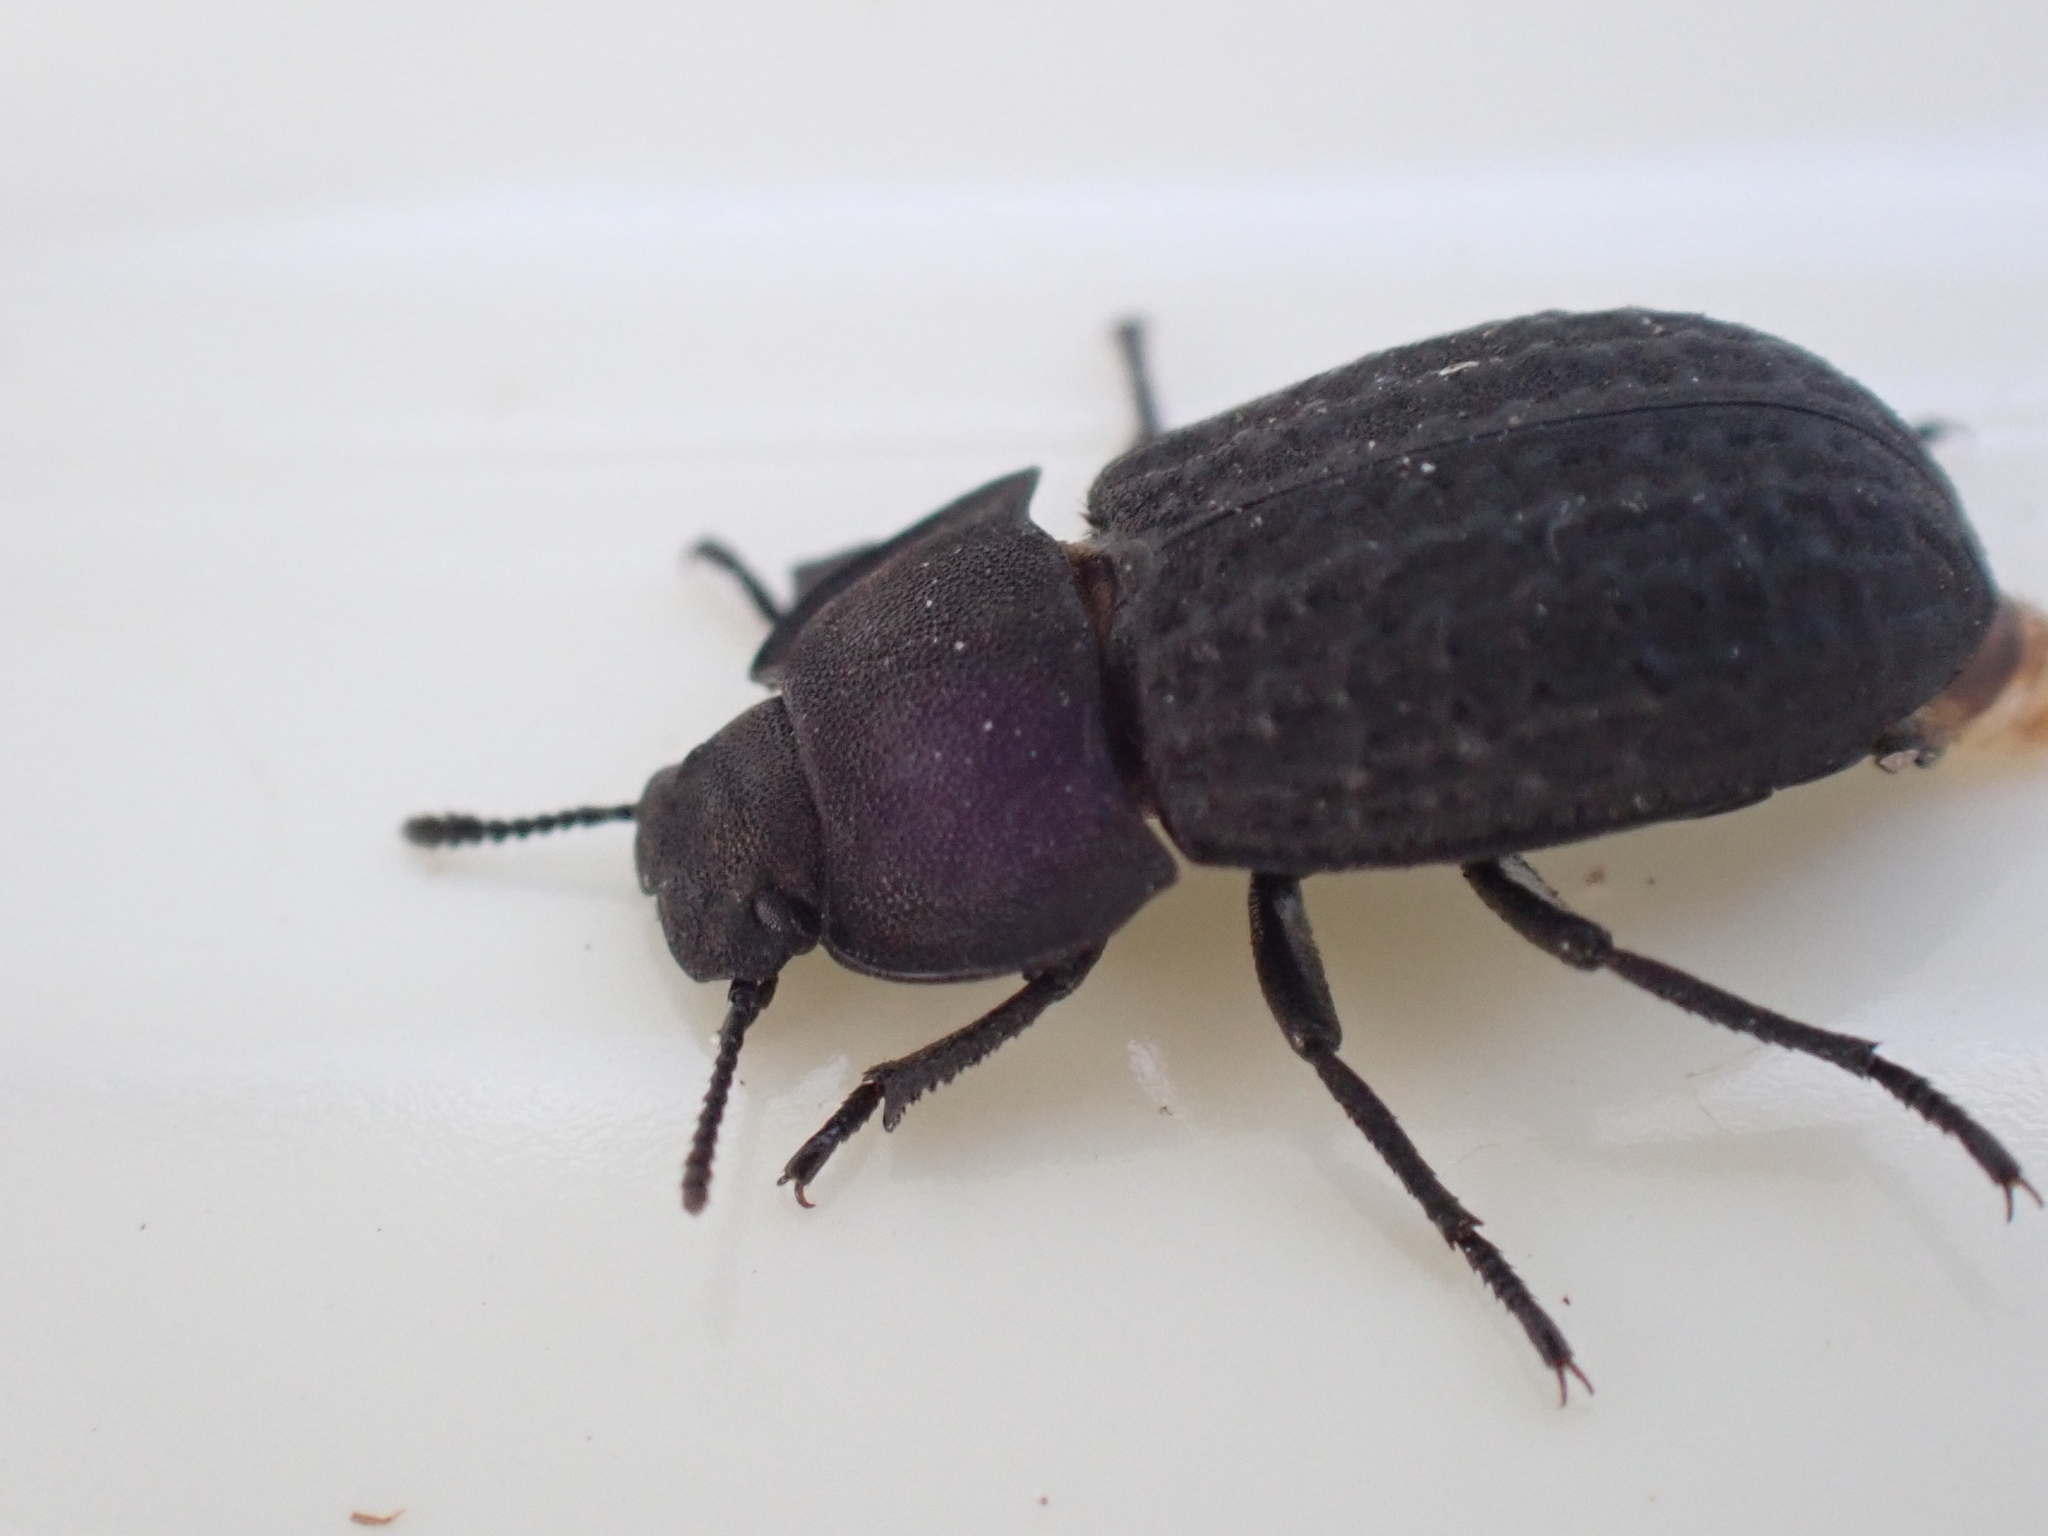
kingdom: Animalia
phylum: Arthropoda
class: Insecta
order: Coleoptera
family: Tenebrionidae
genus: Opatrum
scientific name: Opatrum sabulosum
